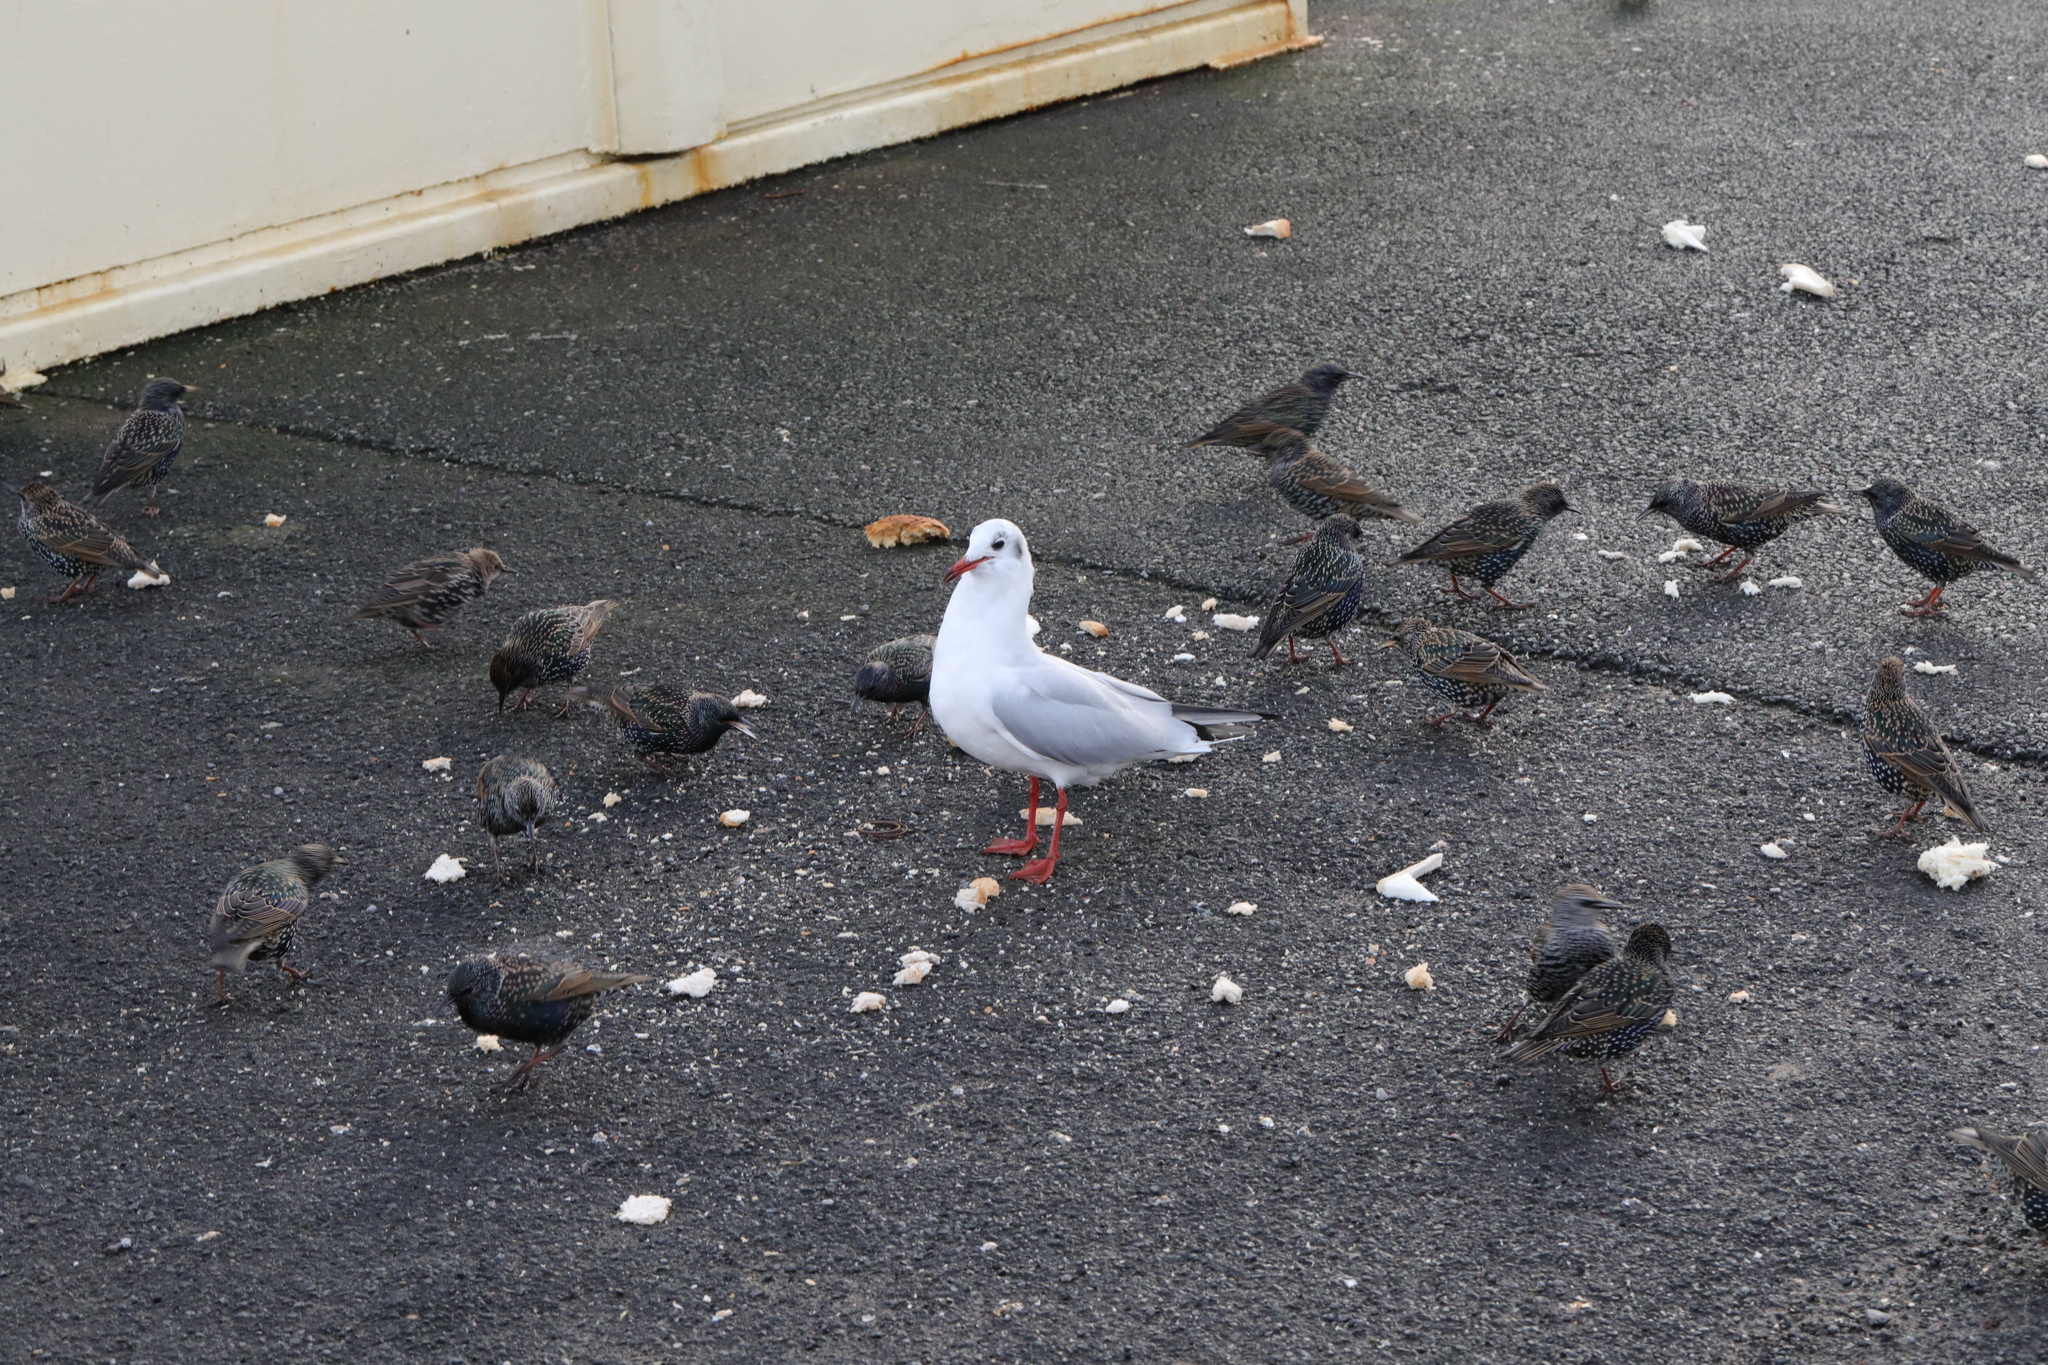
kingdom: Animalia
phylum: Chordata
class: Aves
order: Charadriiformes
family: Laridae
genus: Chroicocephalus
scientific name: Chroicocephalus ridibundus
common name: Black-headed gull
